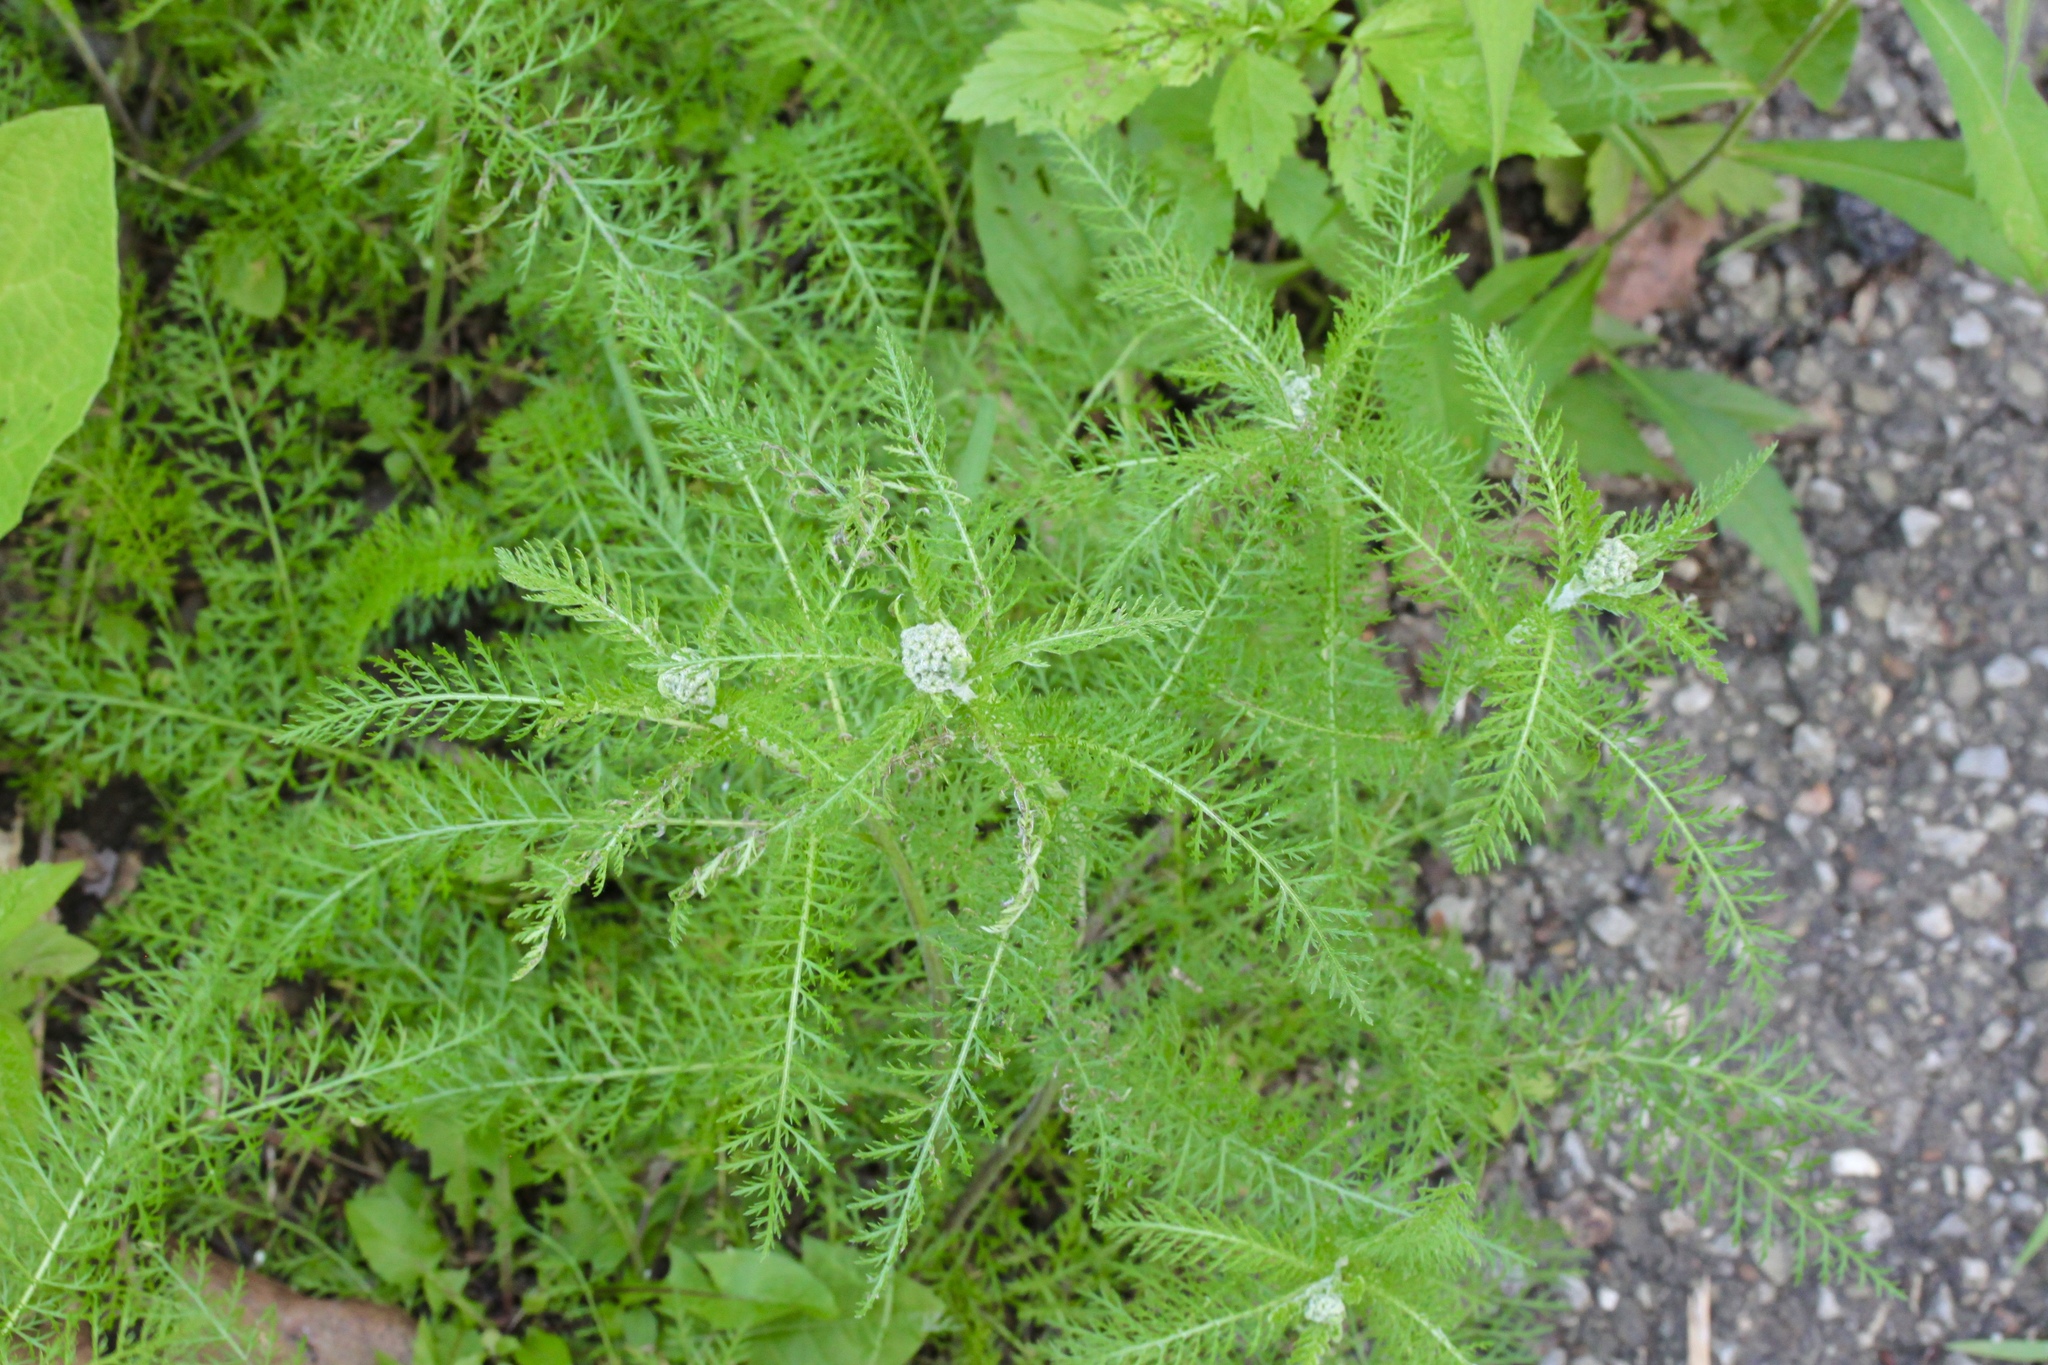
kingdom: Plantae
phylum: Tracheophyta
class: Magnoliopsida
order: Asterales
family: Asteraceae
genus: Achillea
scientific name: Achillea millefolium
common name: Yarrow
